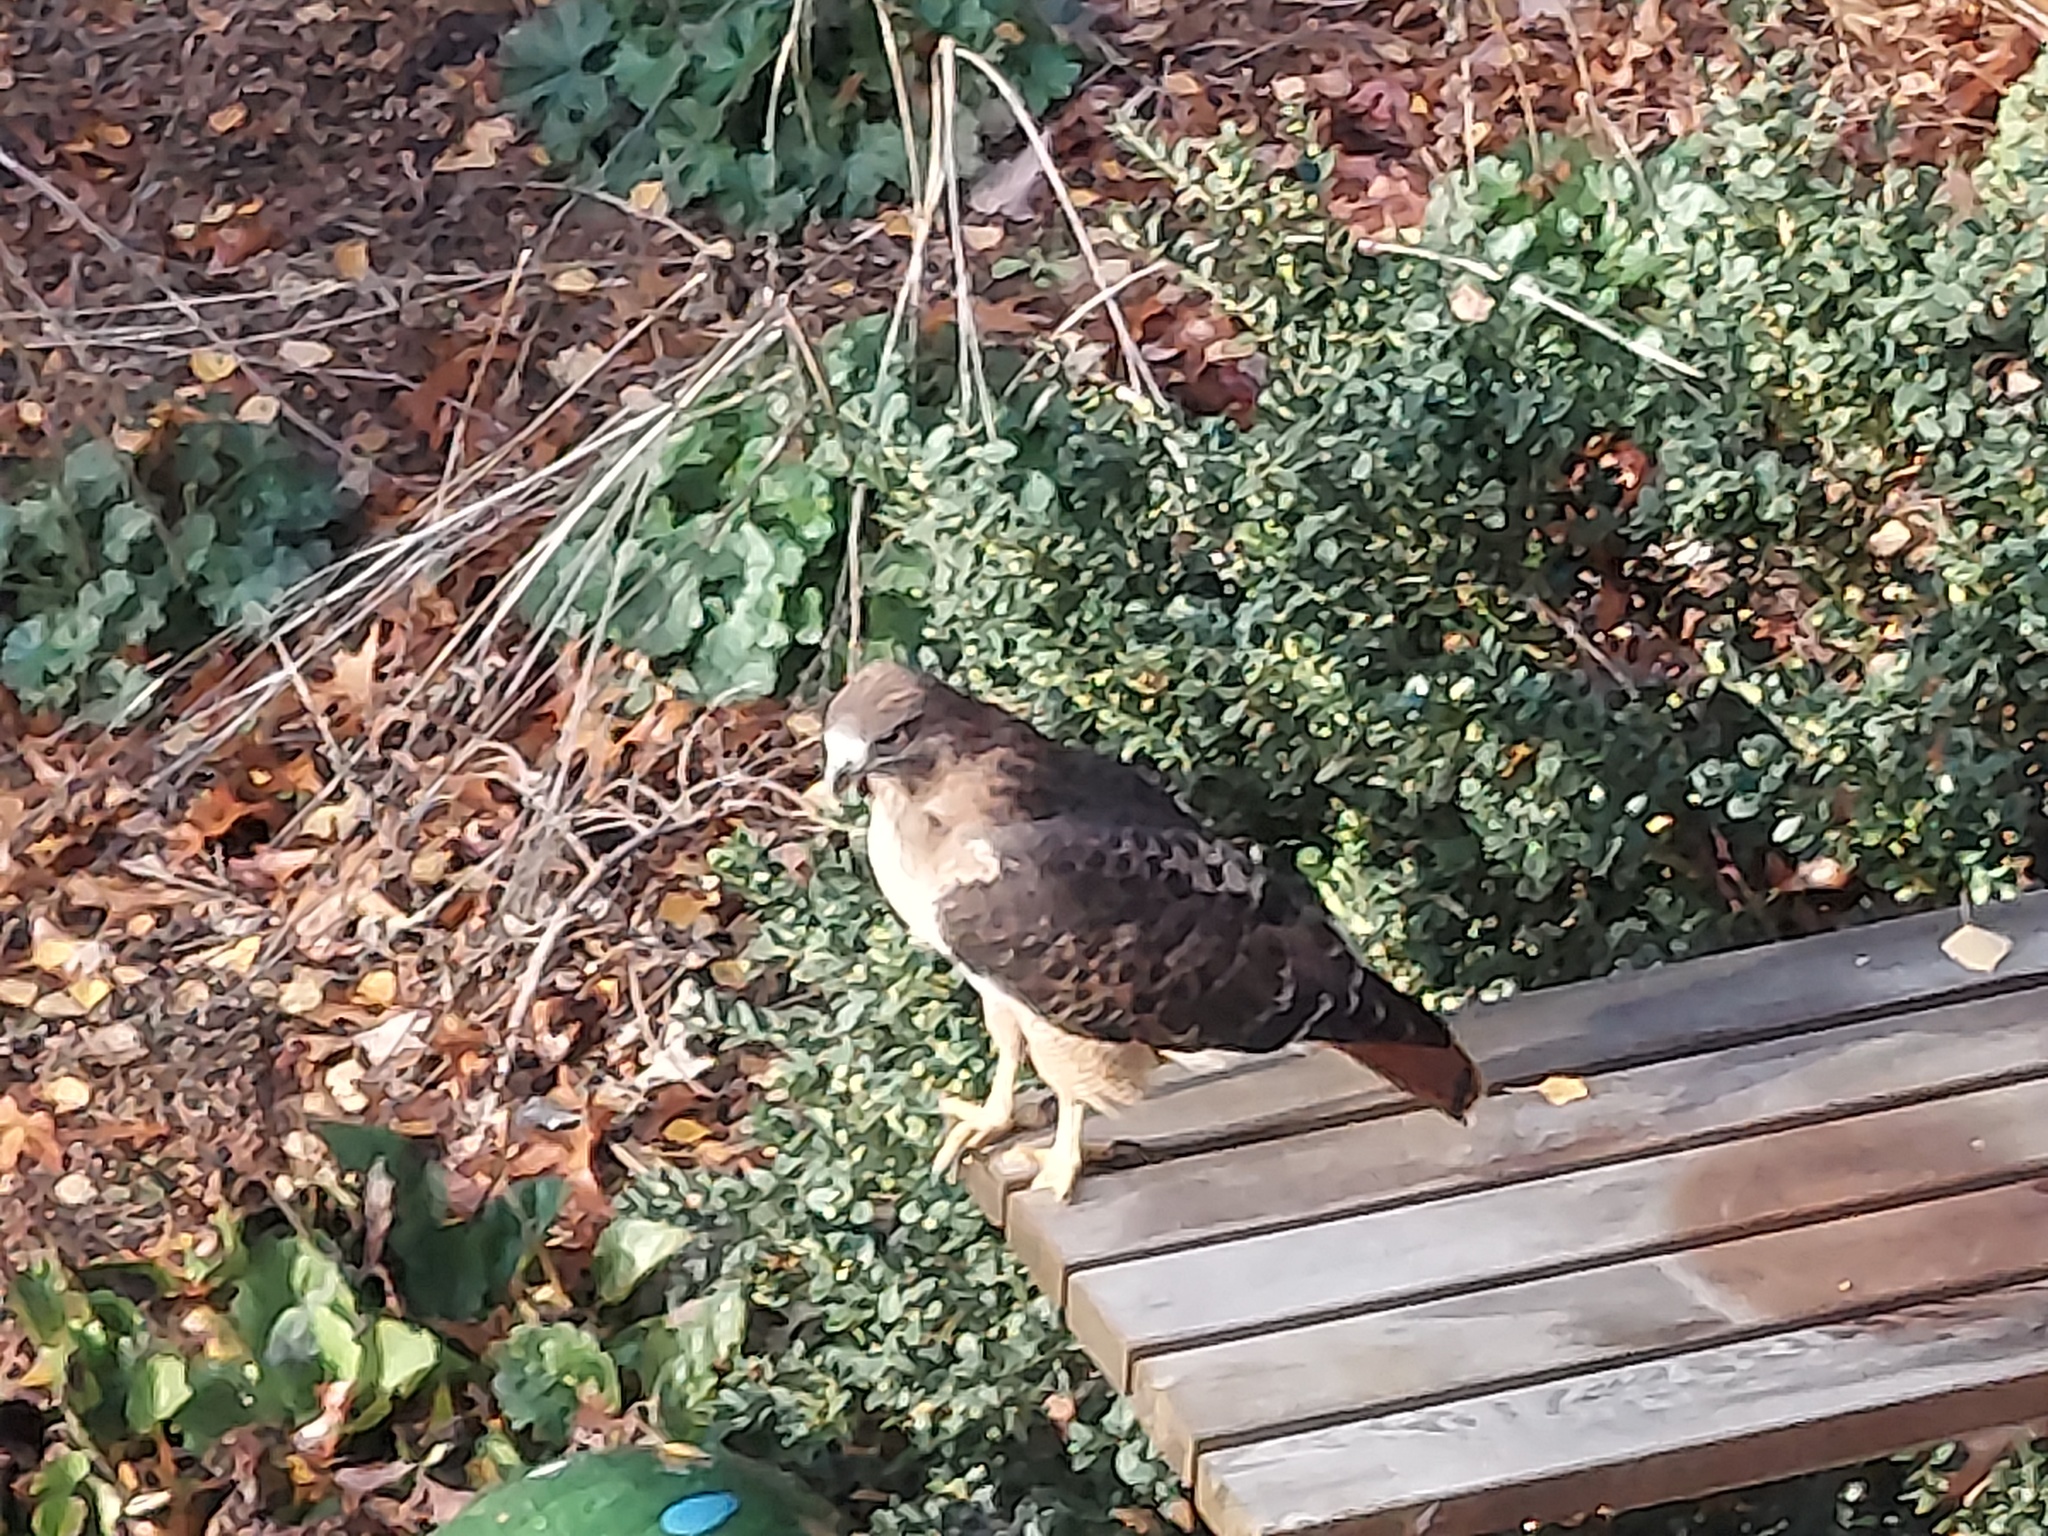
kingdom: Animalia
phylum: Chordata
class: Aves
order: Accipitriformes
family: Accipitridae
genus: Buteo
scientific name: Buteo jamaicensis
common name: Red-tailed hawk
